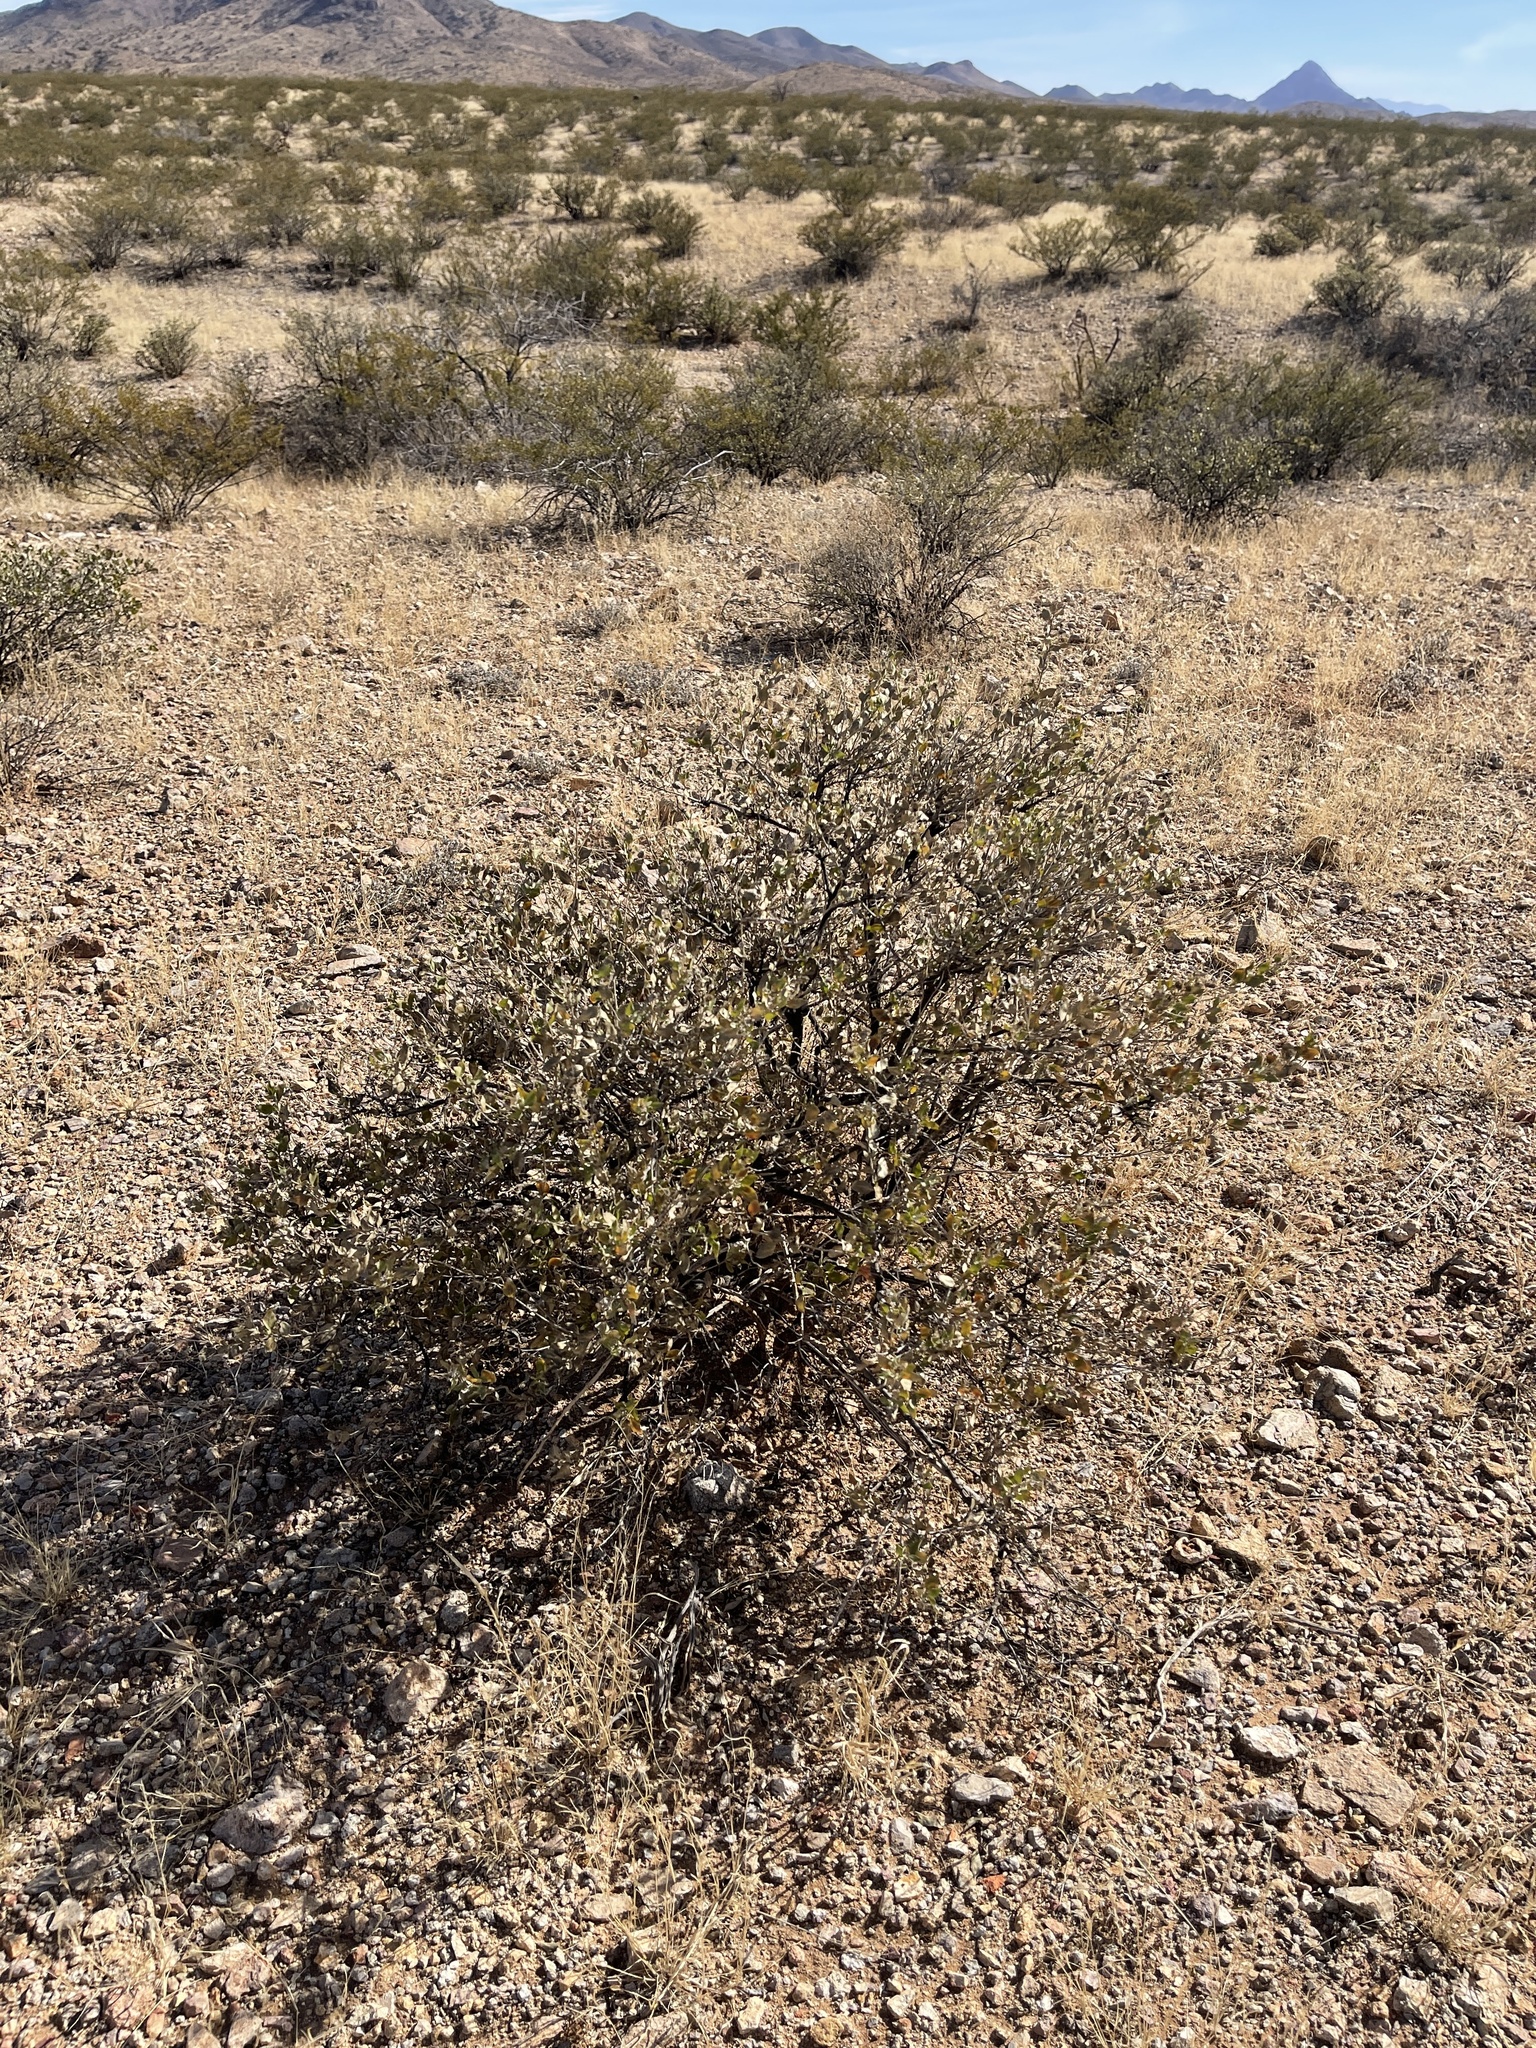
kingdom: Plantae
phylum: Tracheophyta
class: Magnoliopsida
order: Asterales
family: Asteraceae
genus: Flourensia
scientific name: Flourensia cernua
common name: Varnishbush
